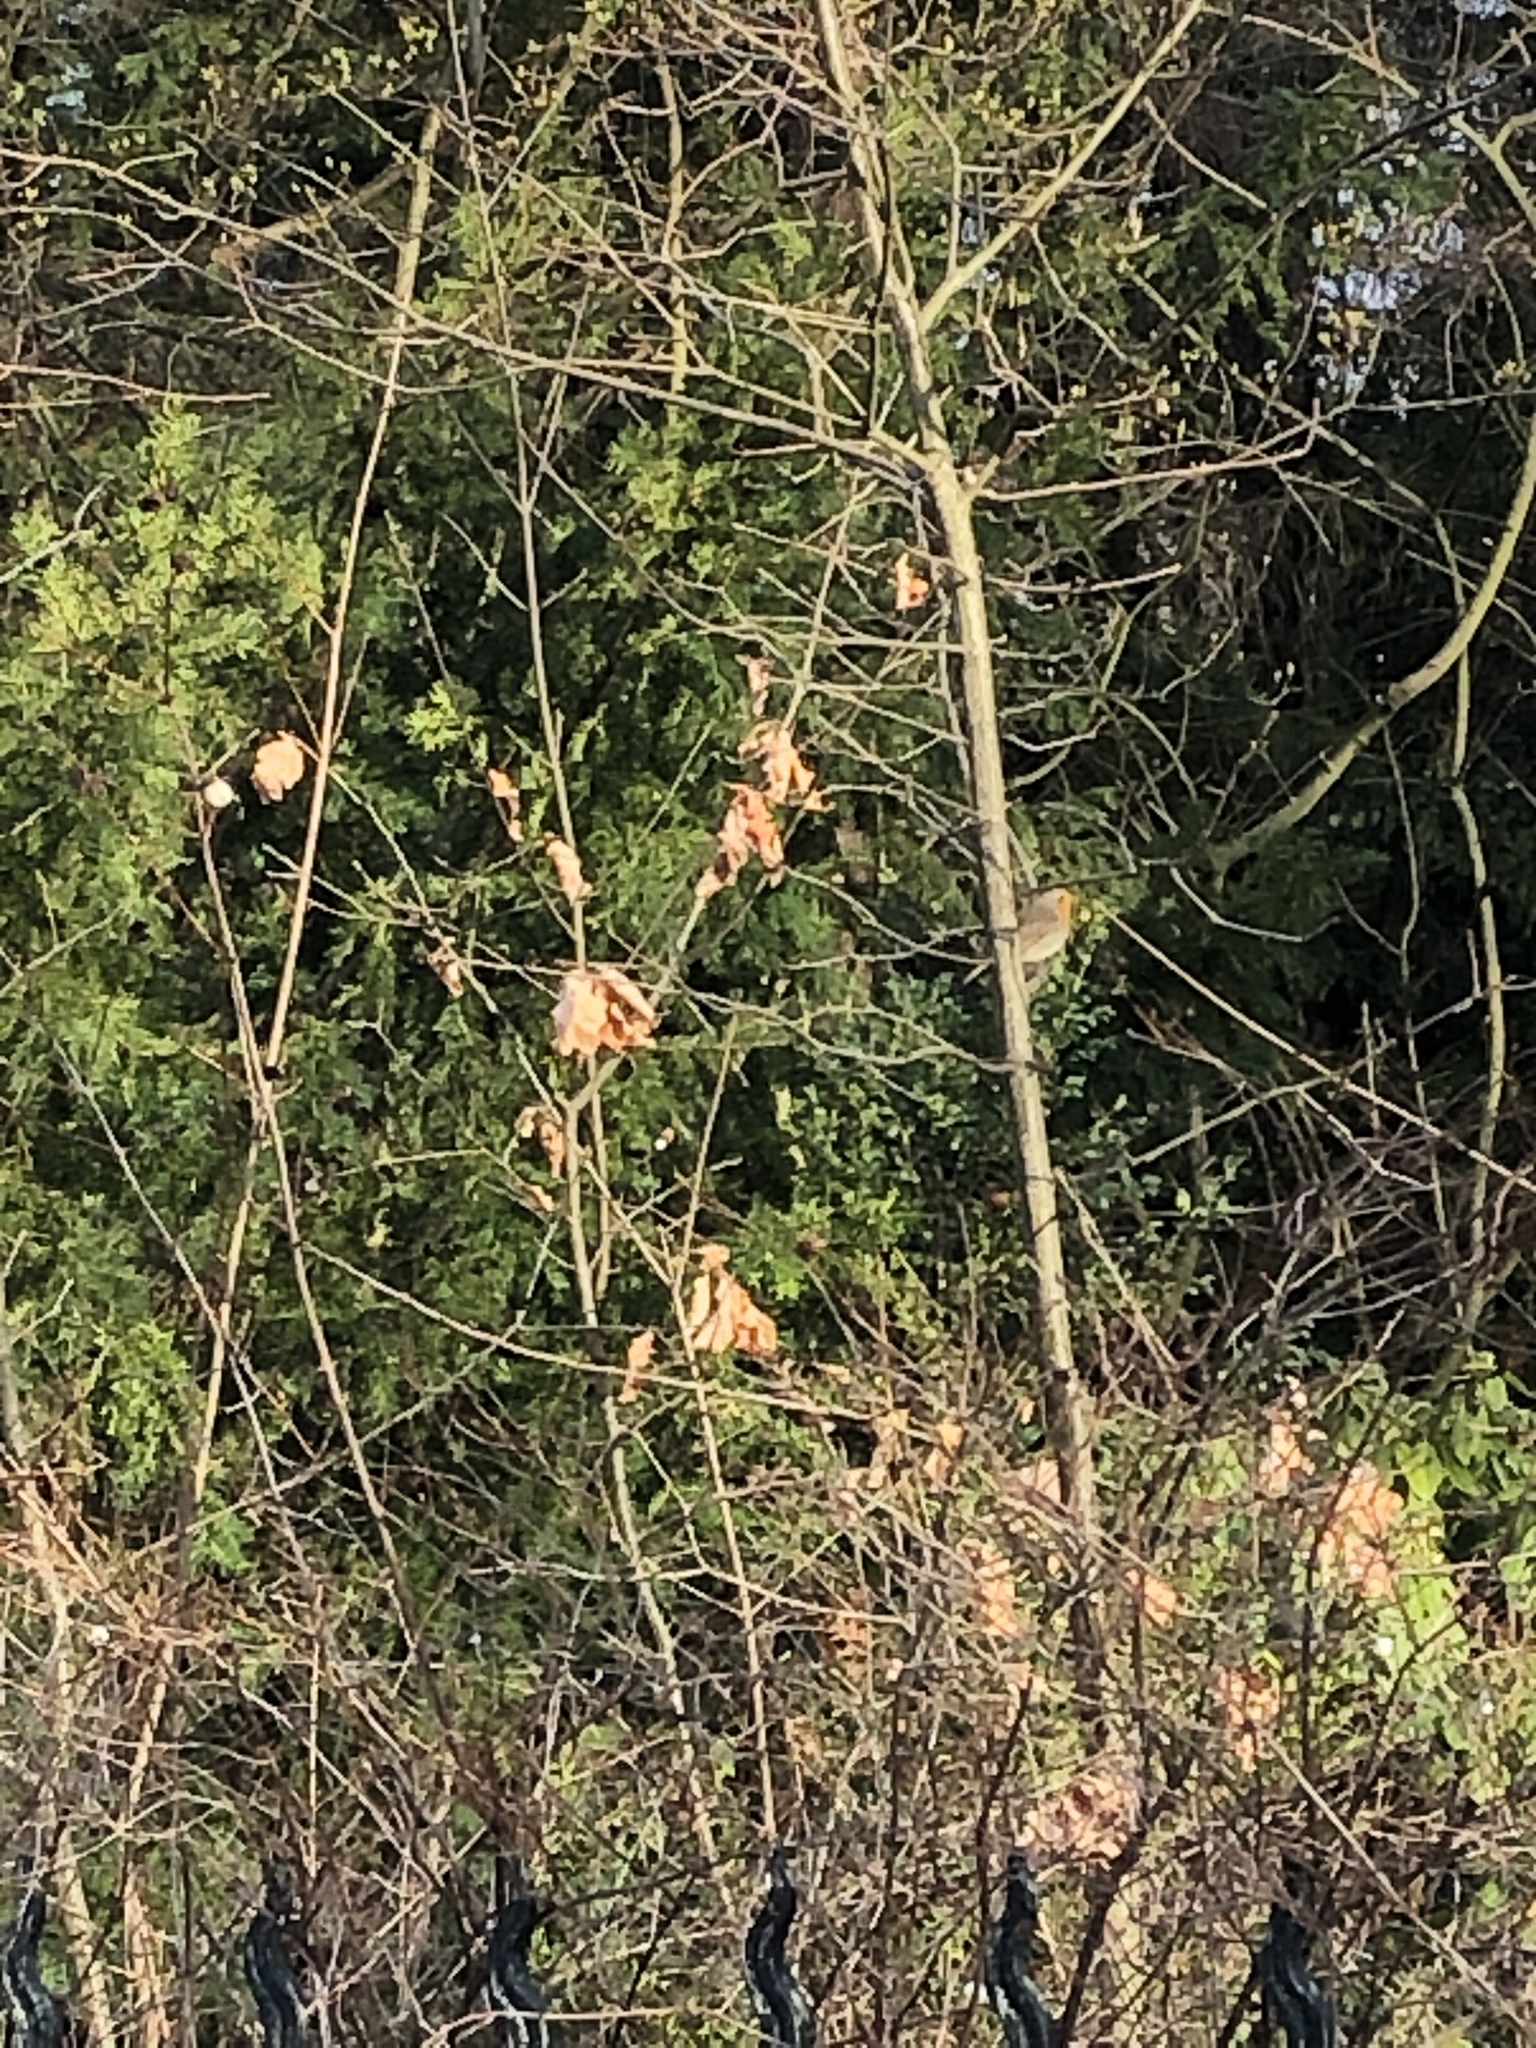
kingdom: Animalia
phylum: Chordata
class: Aves
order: Passeriformes
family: Muscicapidae
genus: Erithacus
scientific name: Erithacus rubecula
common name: European robin
